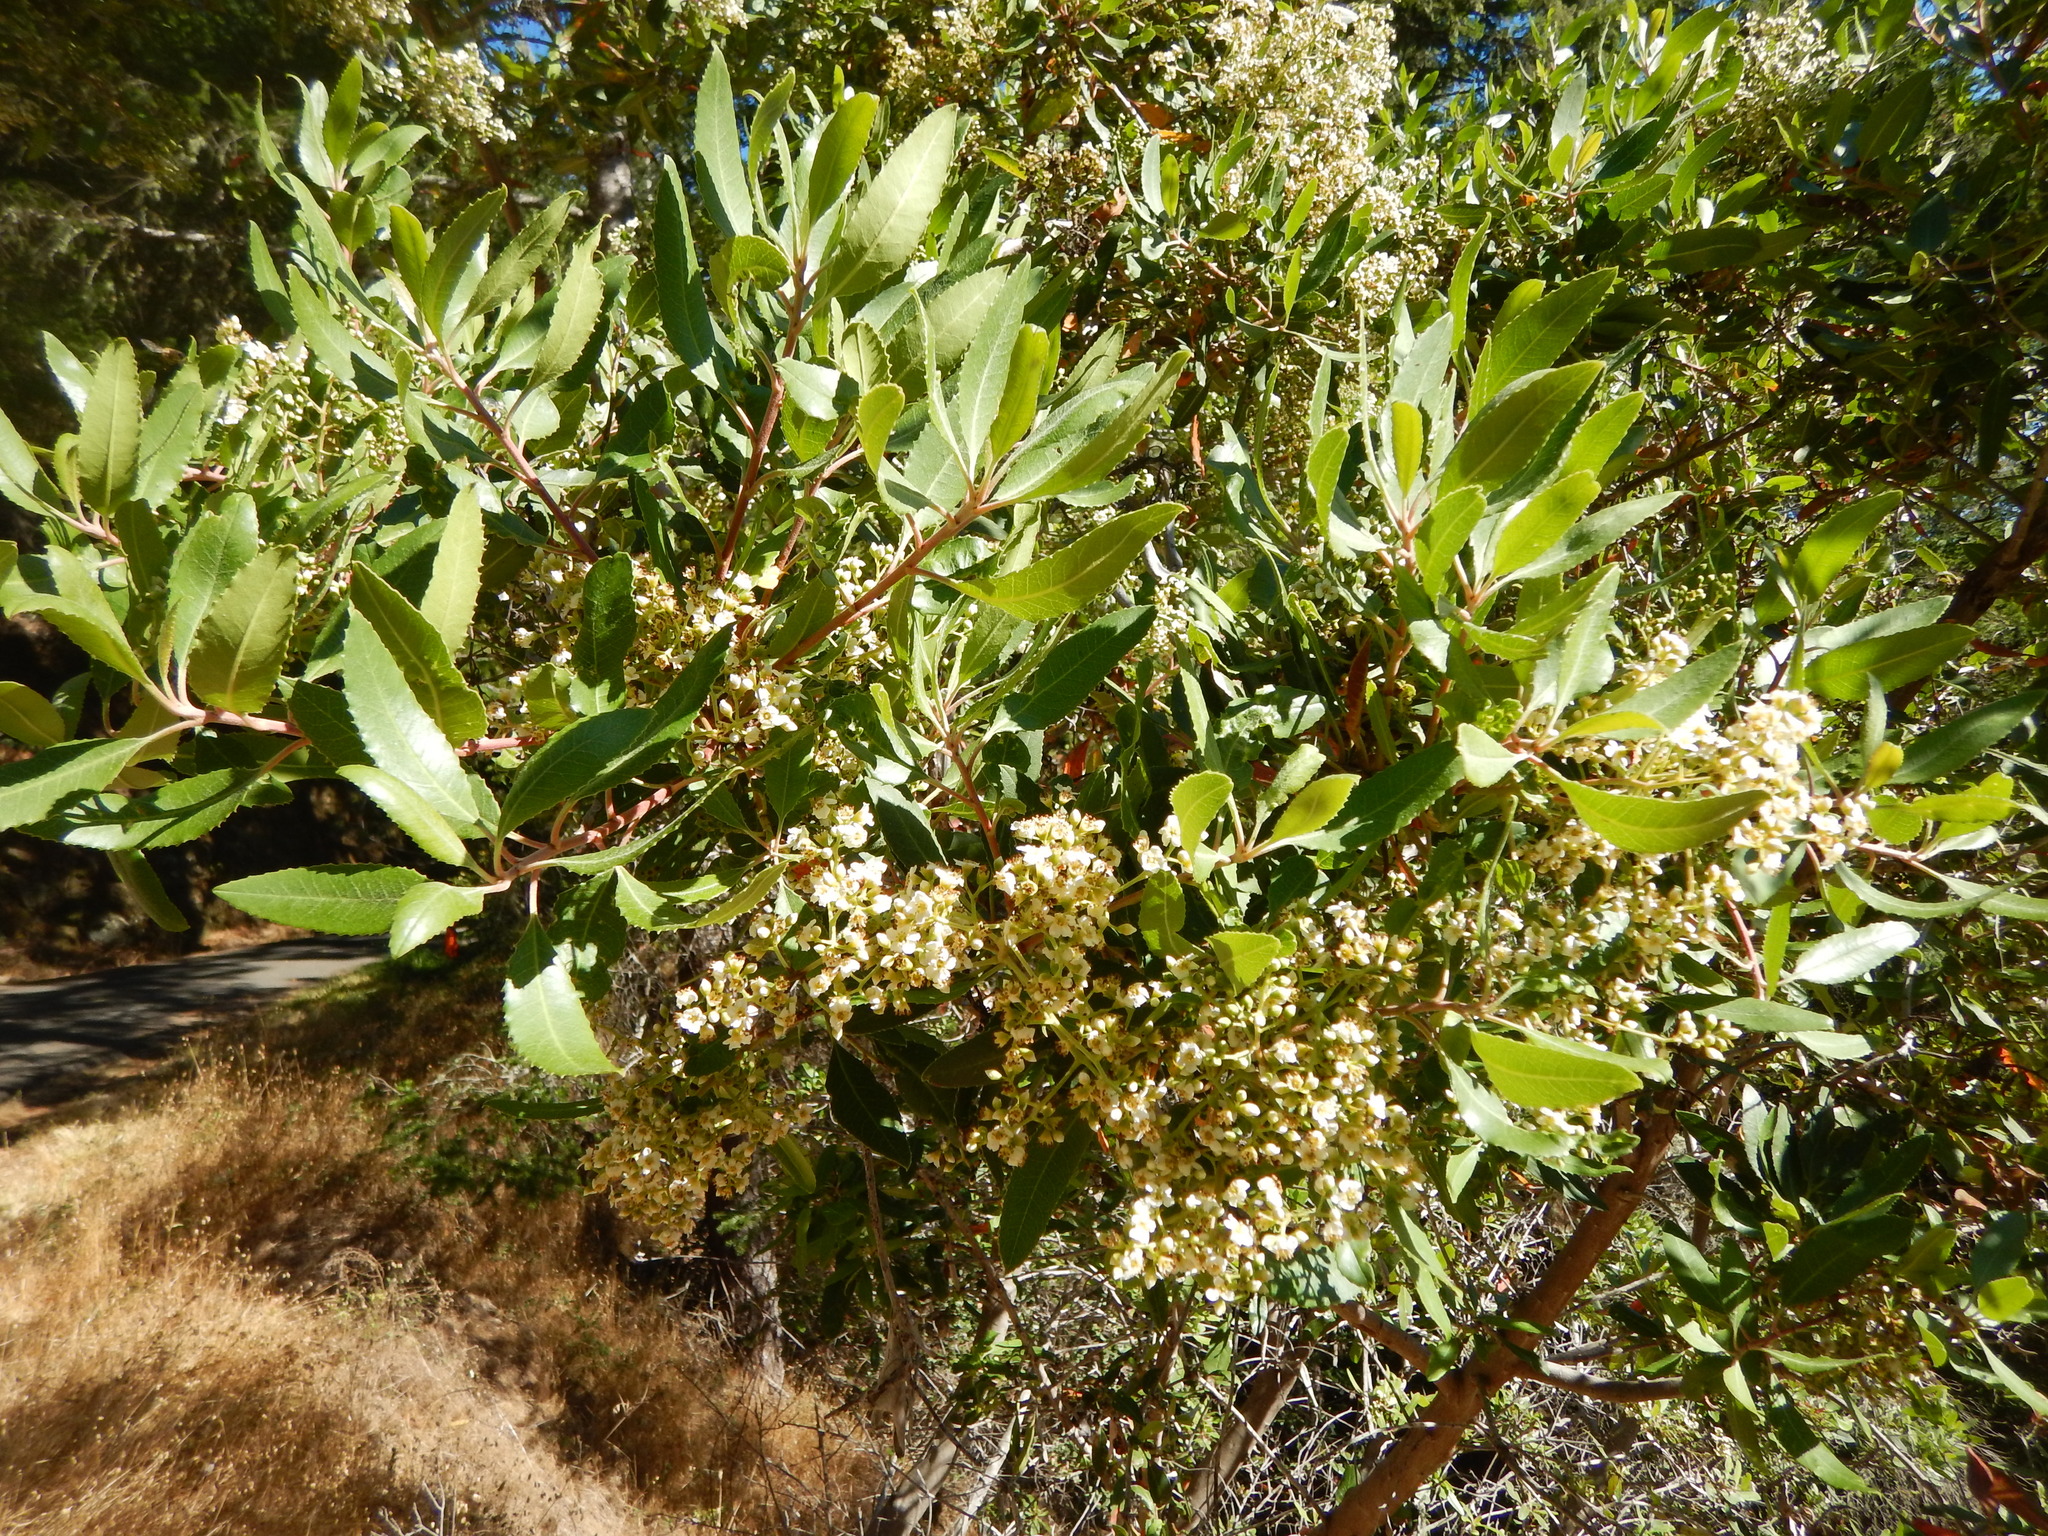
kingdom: Plantae
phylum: Tracheophyta
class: Magnoliopsida
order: Rosales
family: Rosaceae
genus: Heteromeles
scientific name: Heteromeles arbutifolia
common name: California-holly
